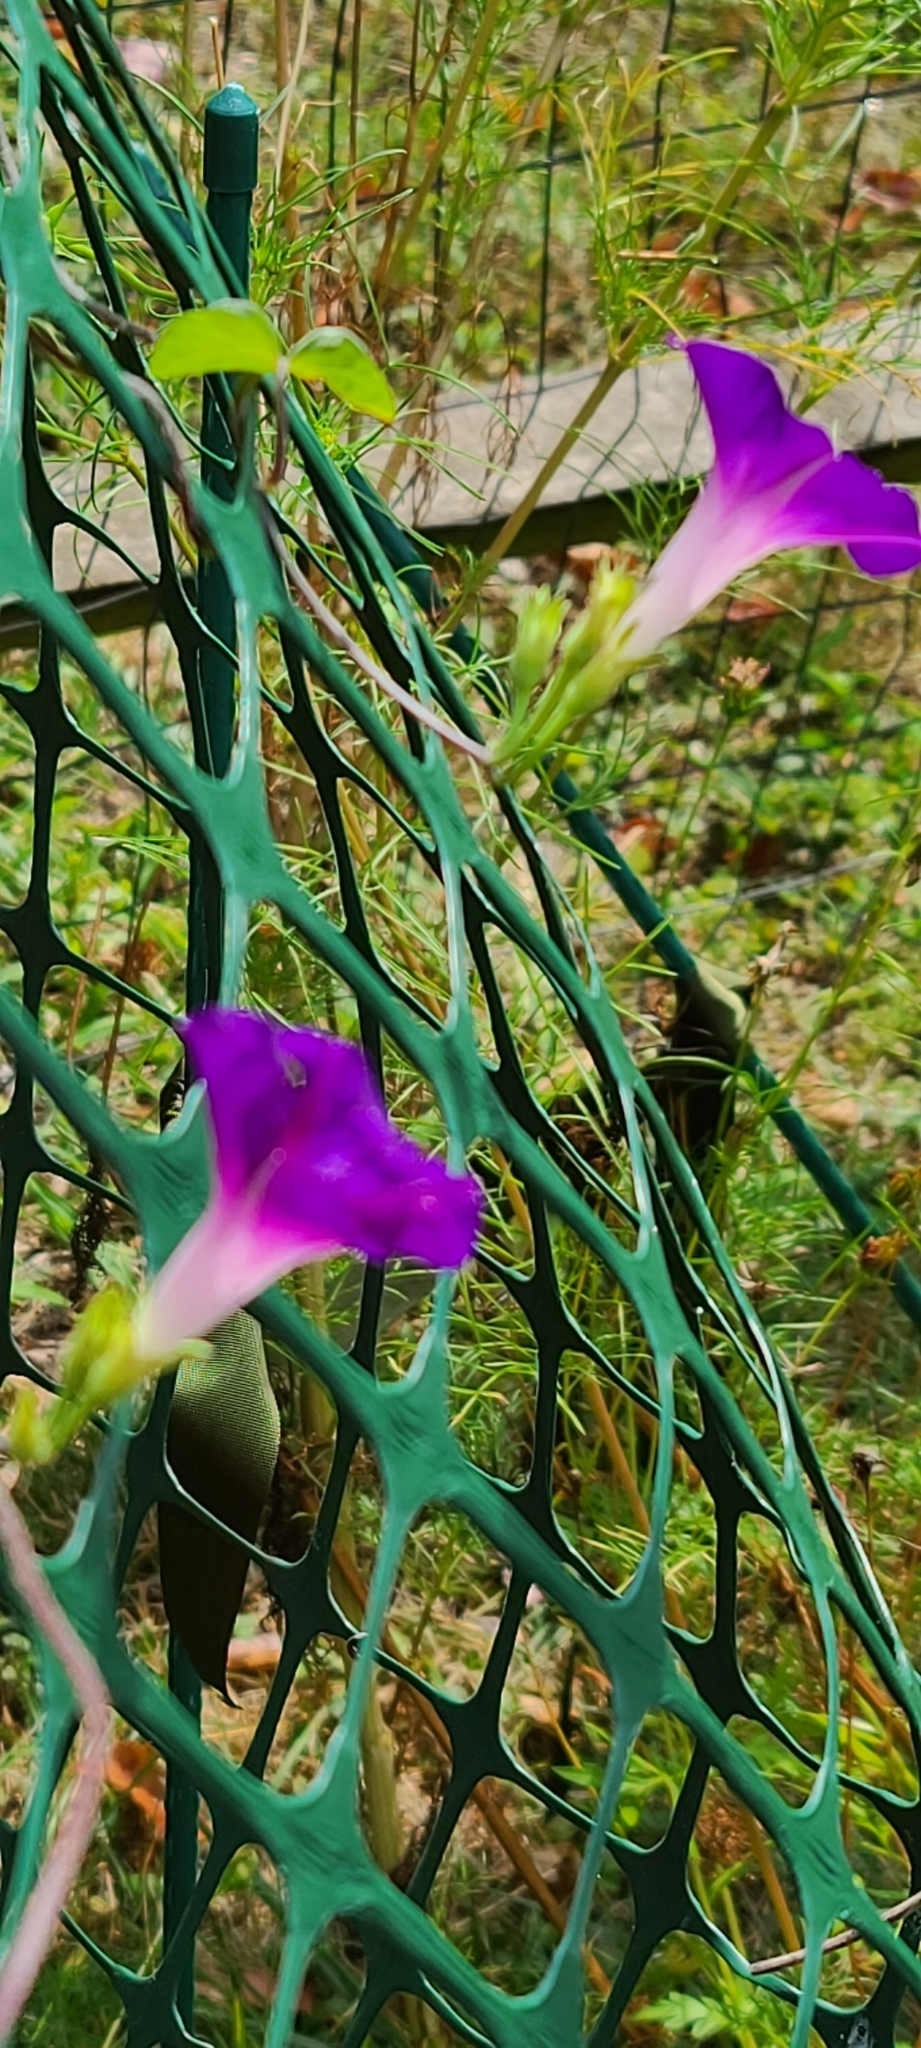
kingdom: Plantae
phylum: Tracheophyta
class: Magnoliopsida
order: Solanales
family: Convolvulaceae
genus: Ipomoea
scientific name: Ipomoea purpurea
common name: Common morning-glory
